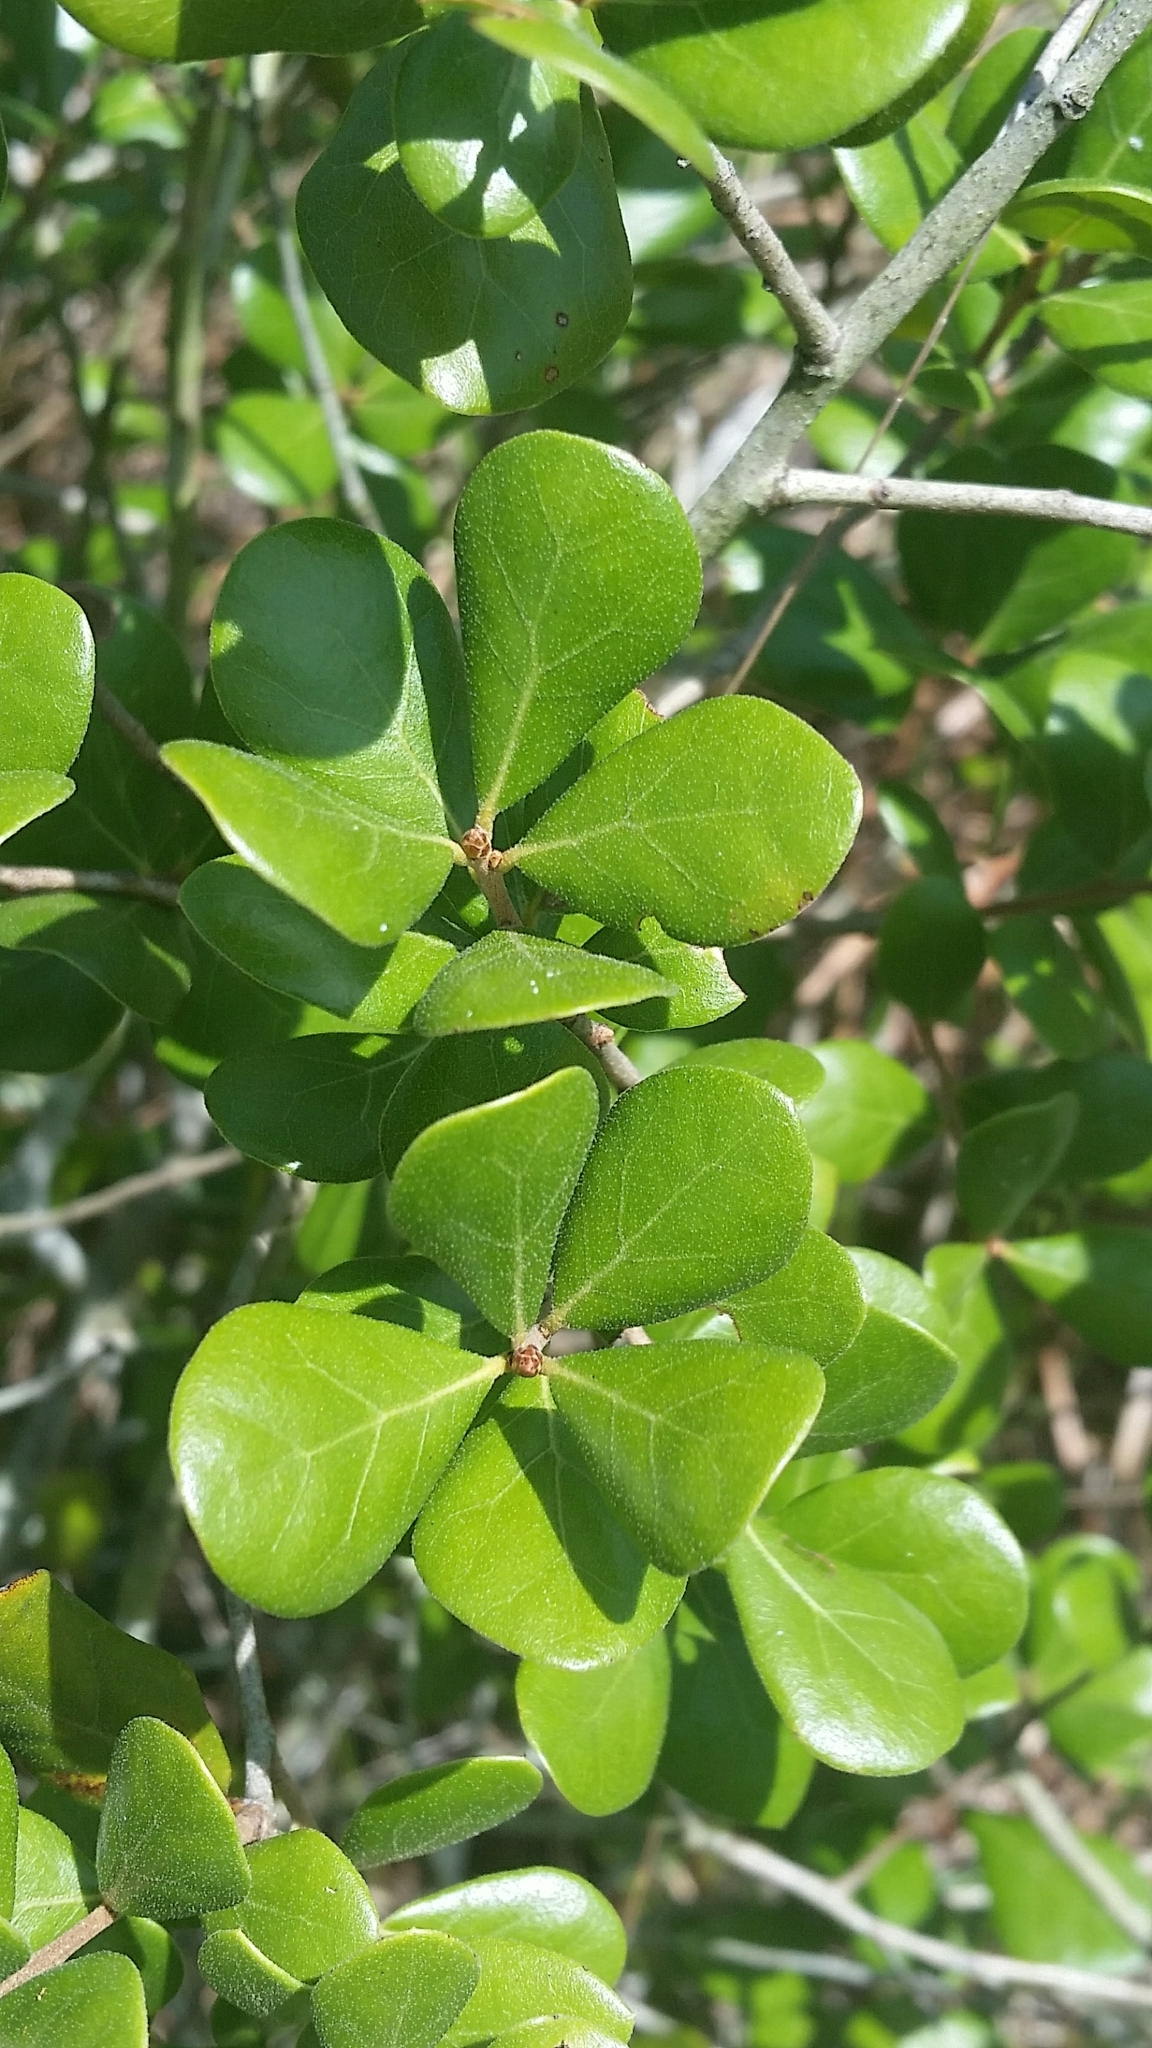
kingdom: Plantae
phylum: Tracheophyta
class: Magnoliopsida
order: Fagales
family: Fagaceae
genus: Quercus
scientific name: Quercus myrtifolia
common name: Myrtle oak
